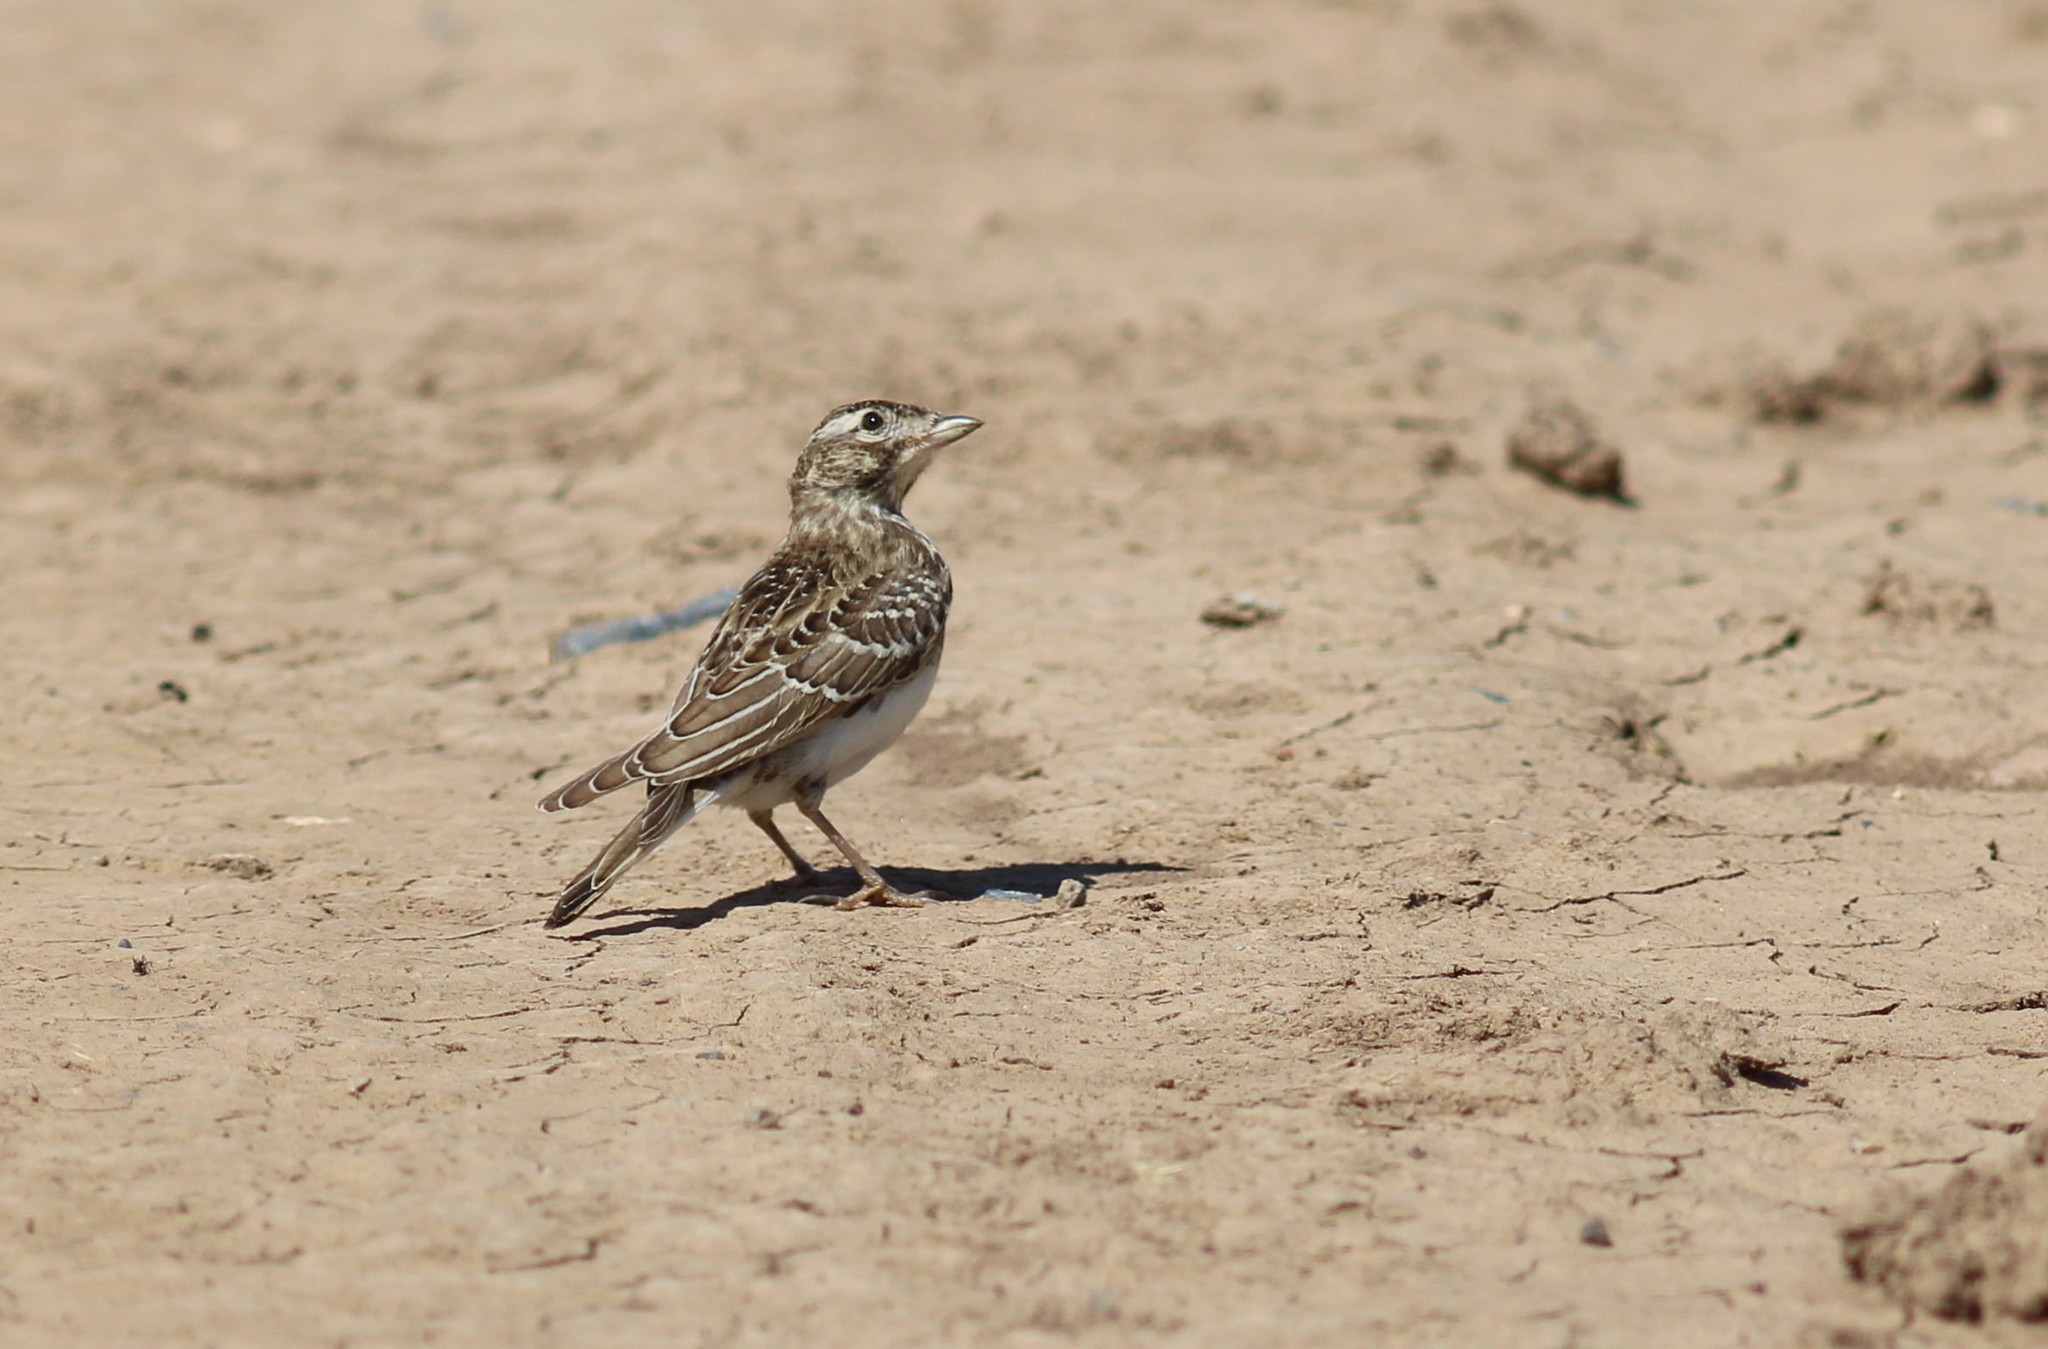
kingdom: Animalia
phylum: Chordata
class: Aves
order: Passeriformes
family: Alaudidae
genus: Calandrella
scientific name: Calandrella brachydactyla
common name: Greater short-toed lark
